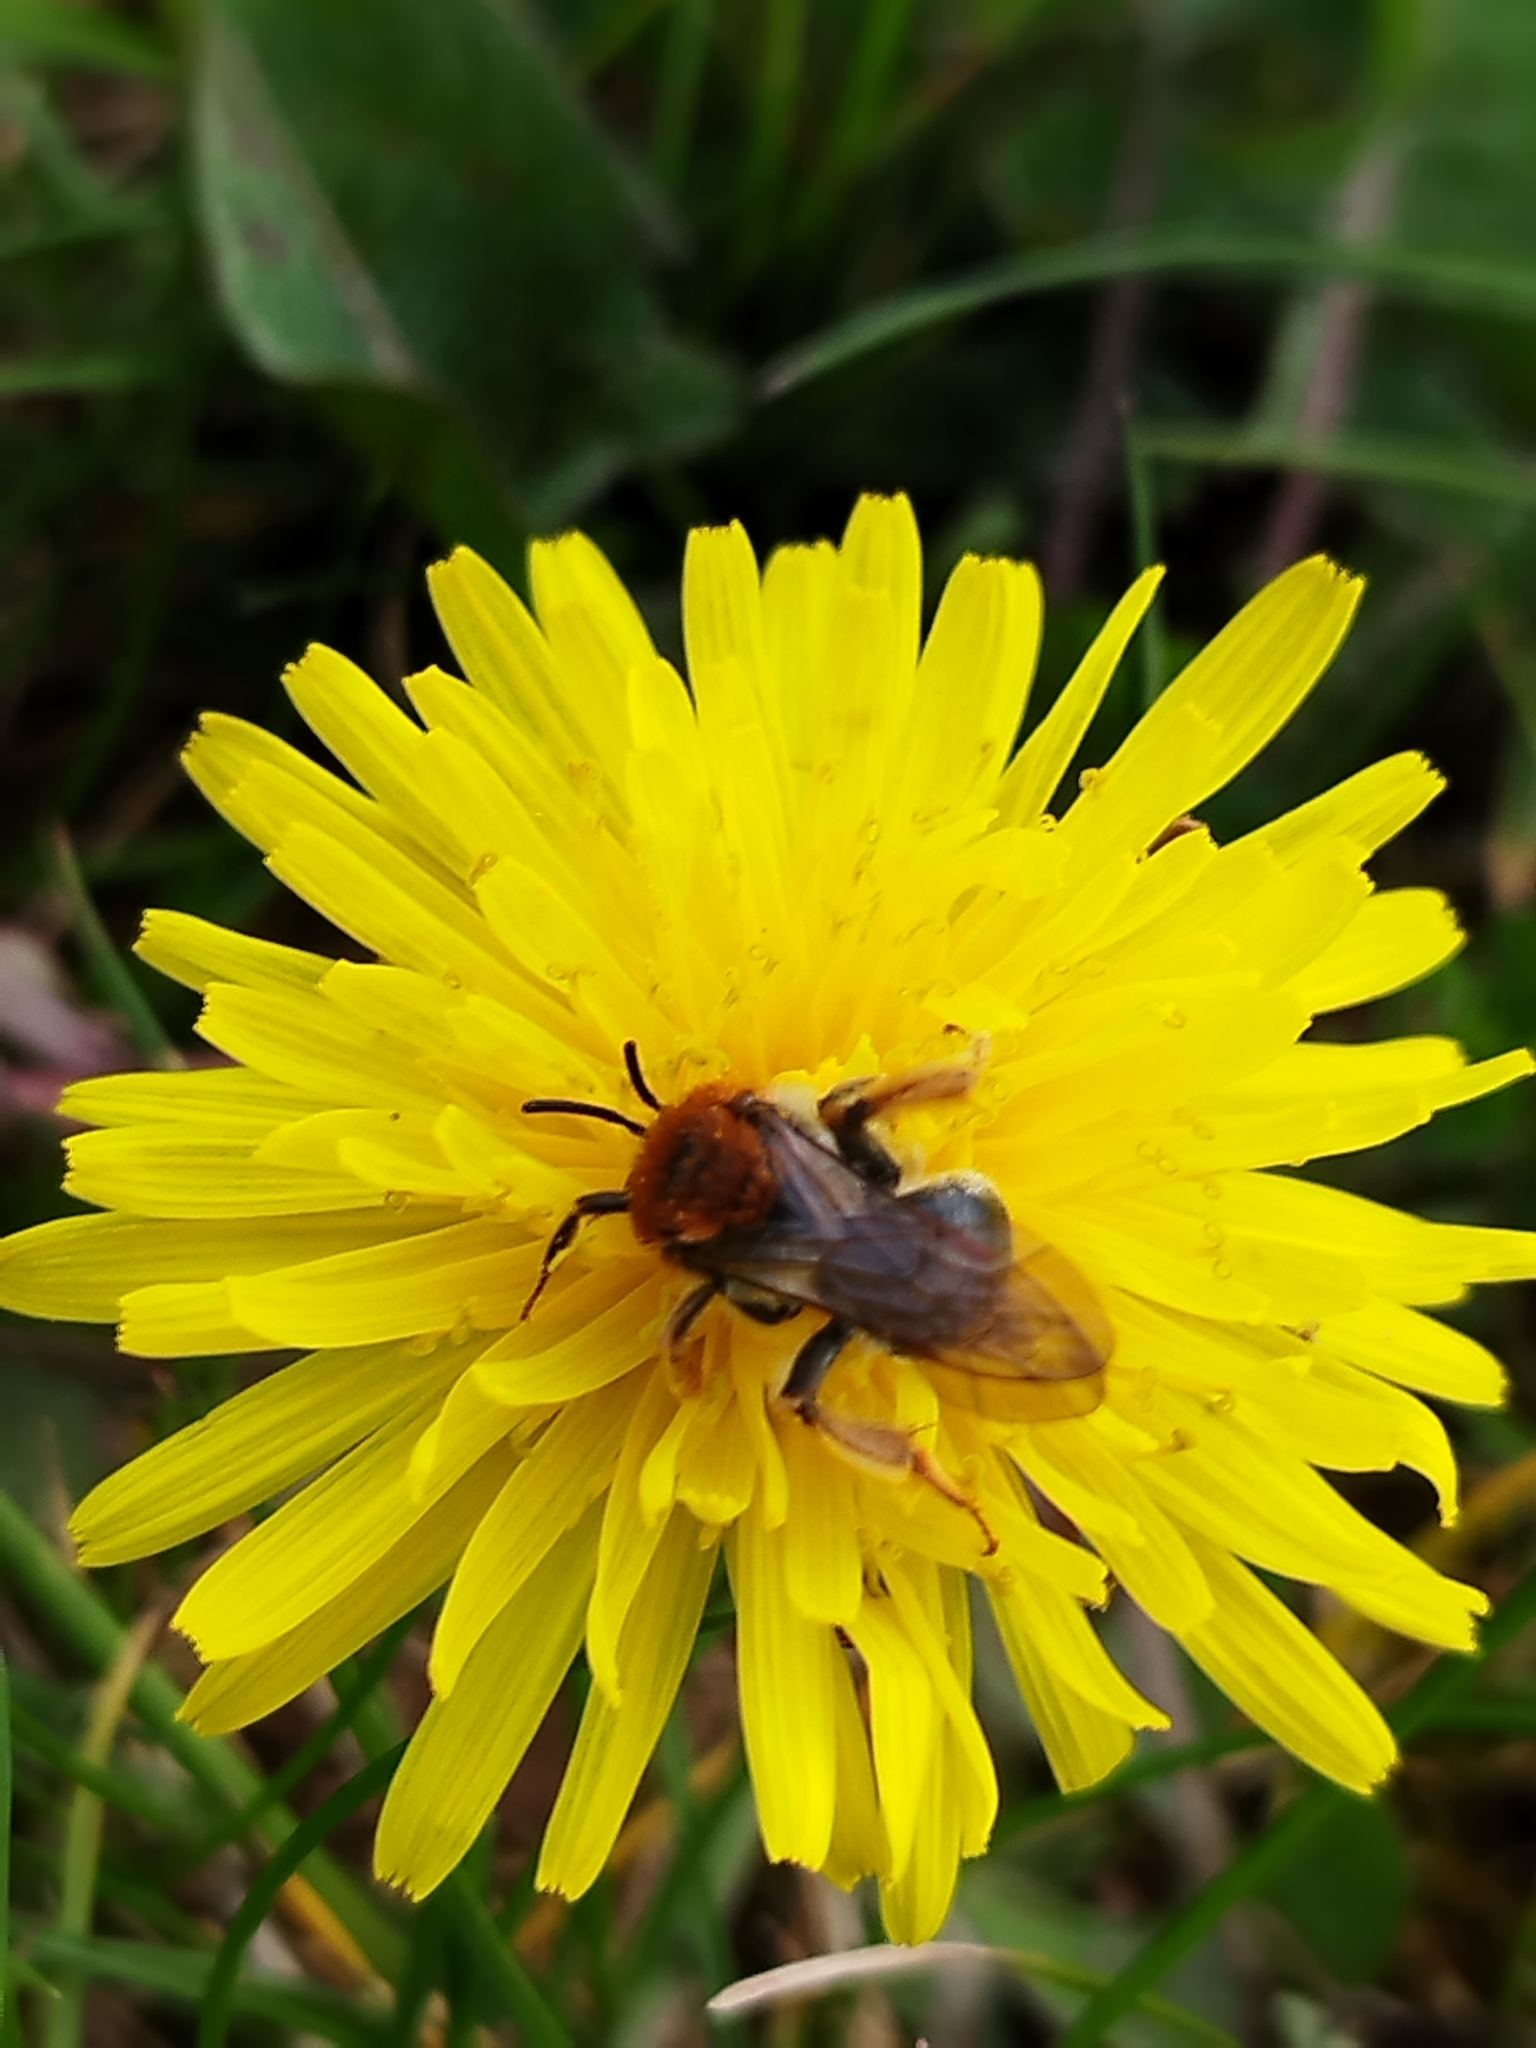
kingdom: Animalia
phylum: Arthropoda
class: Insecta
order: Hymenoptera
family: Andrenidae
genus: Andrena
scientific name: Andrena haemorrhoa
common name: Early mining bee
